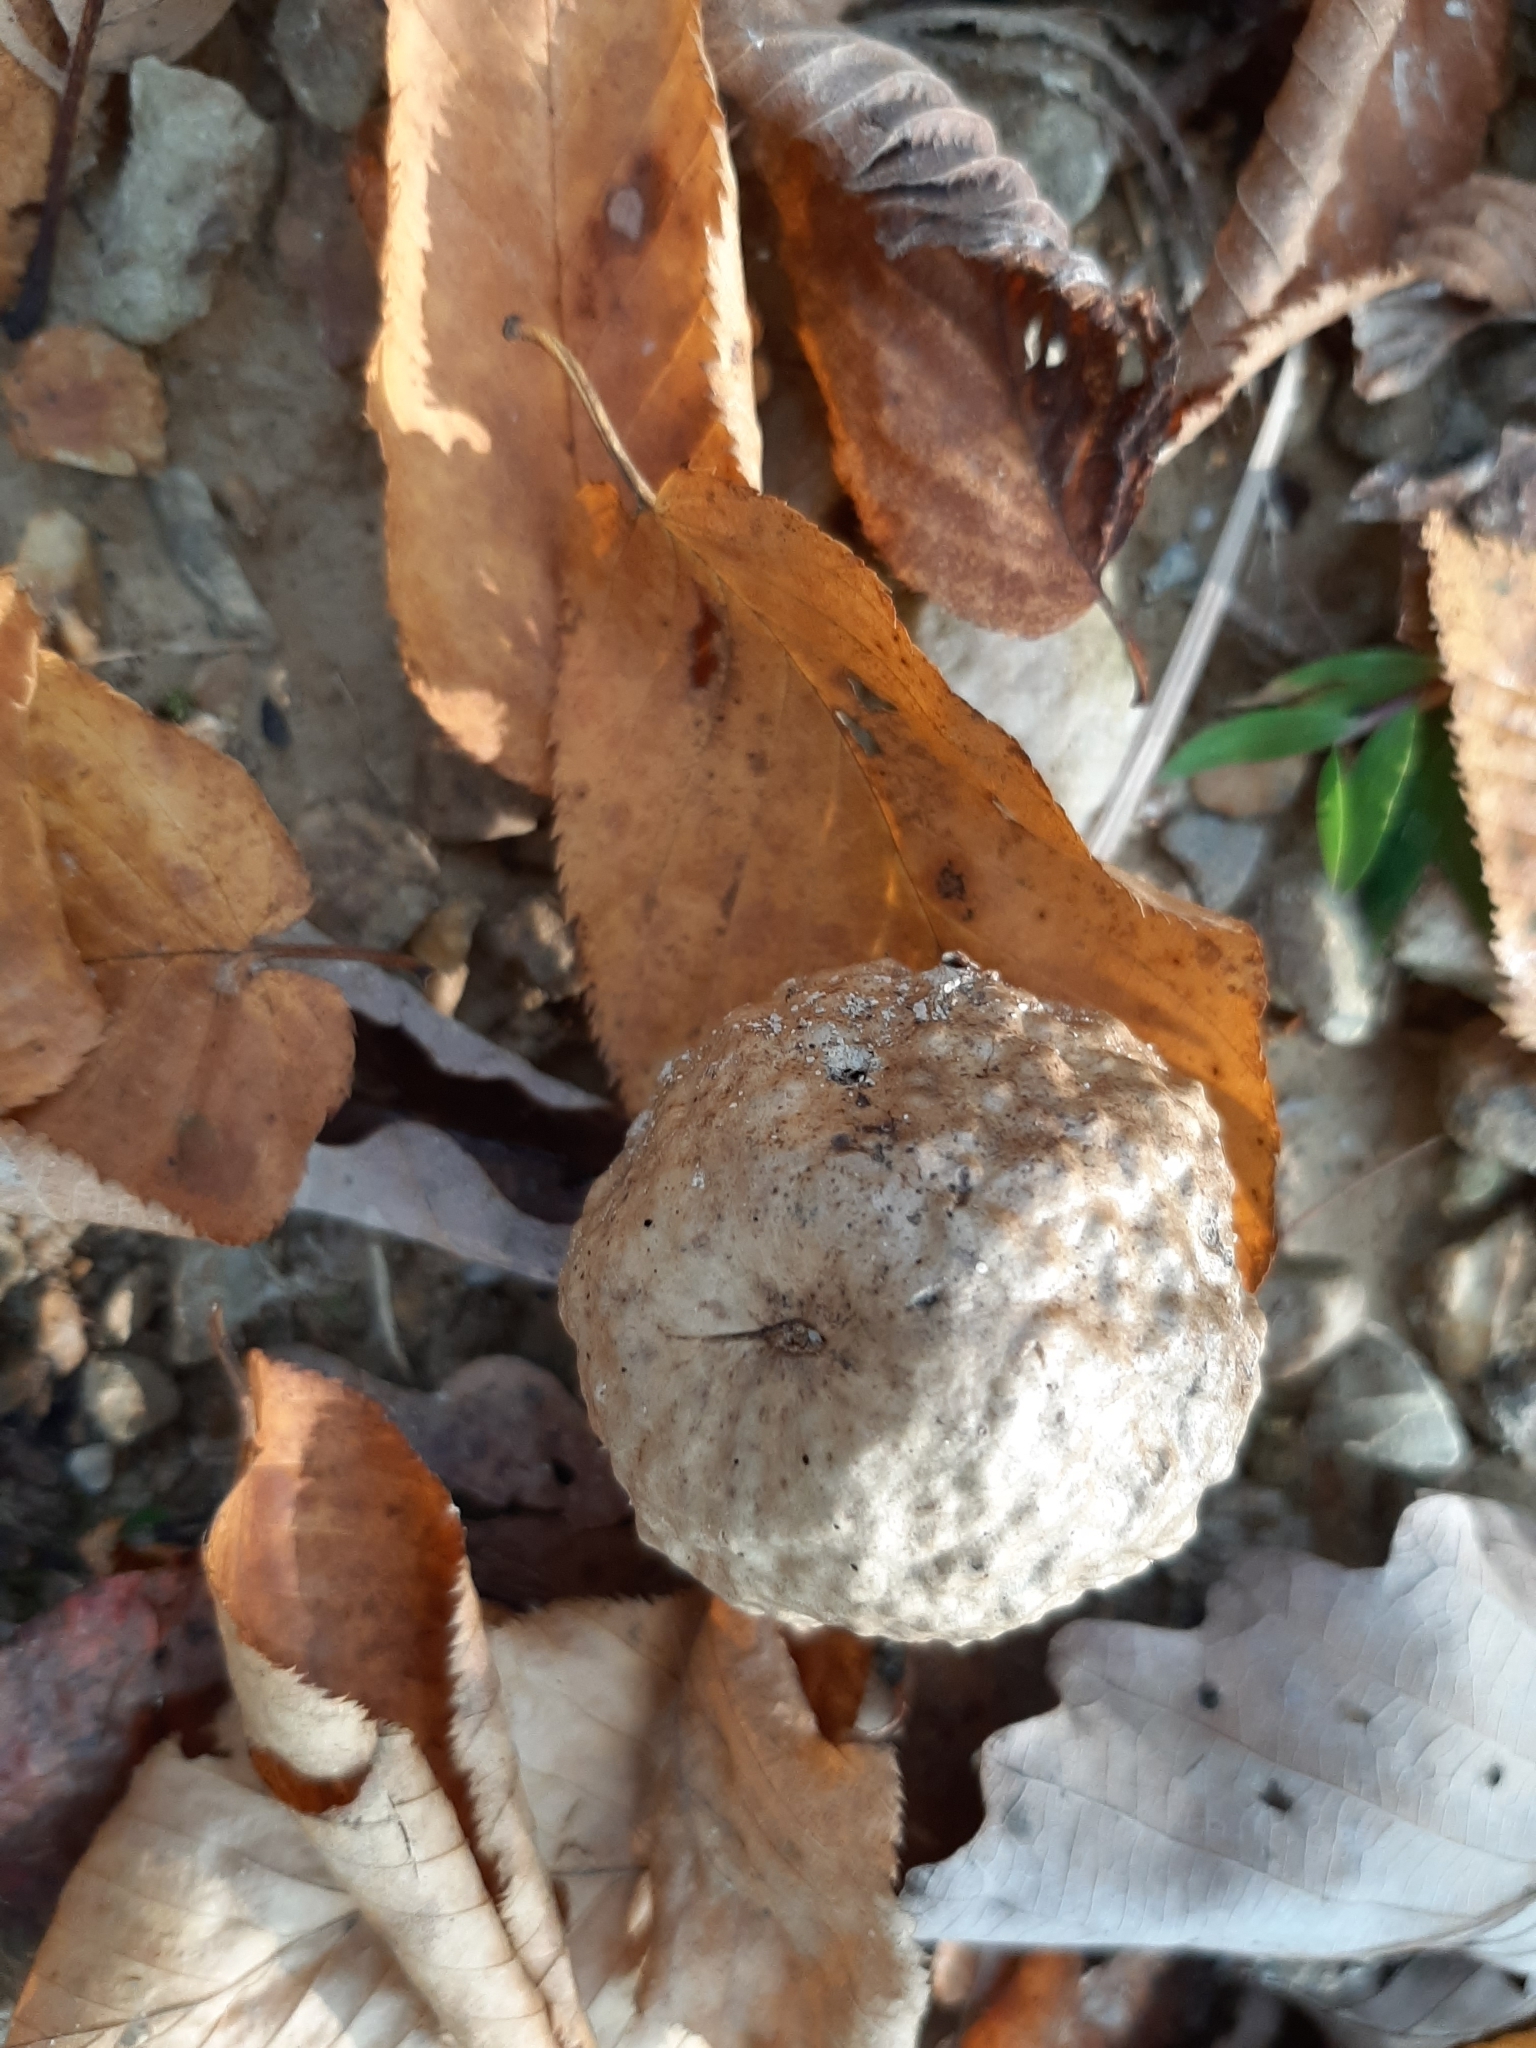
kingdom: Animalia
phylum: Arthropoda
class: Insecta
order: Hymenoptera
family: Cynipidae
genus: Amphibolips
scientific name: Amphibolips
